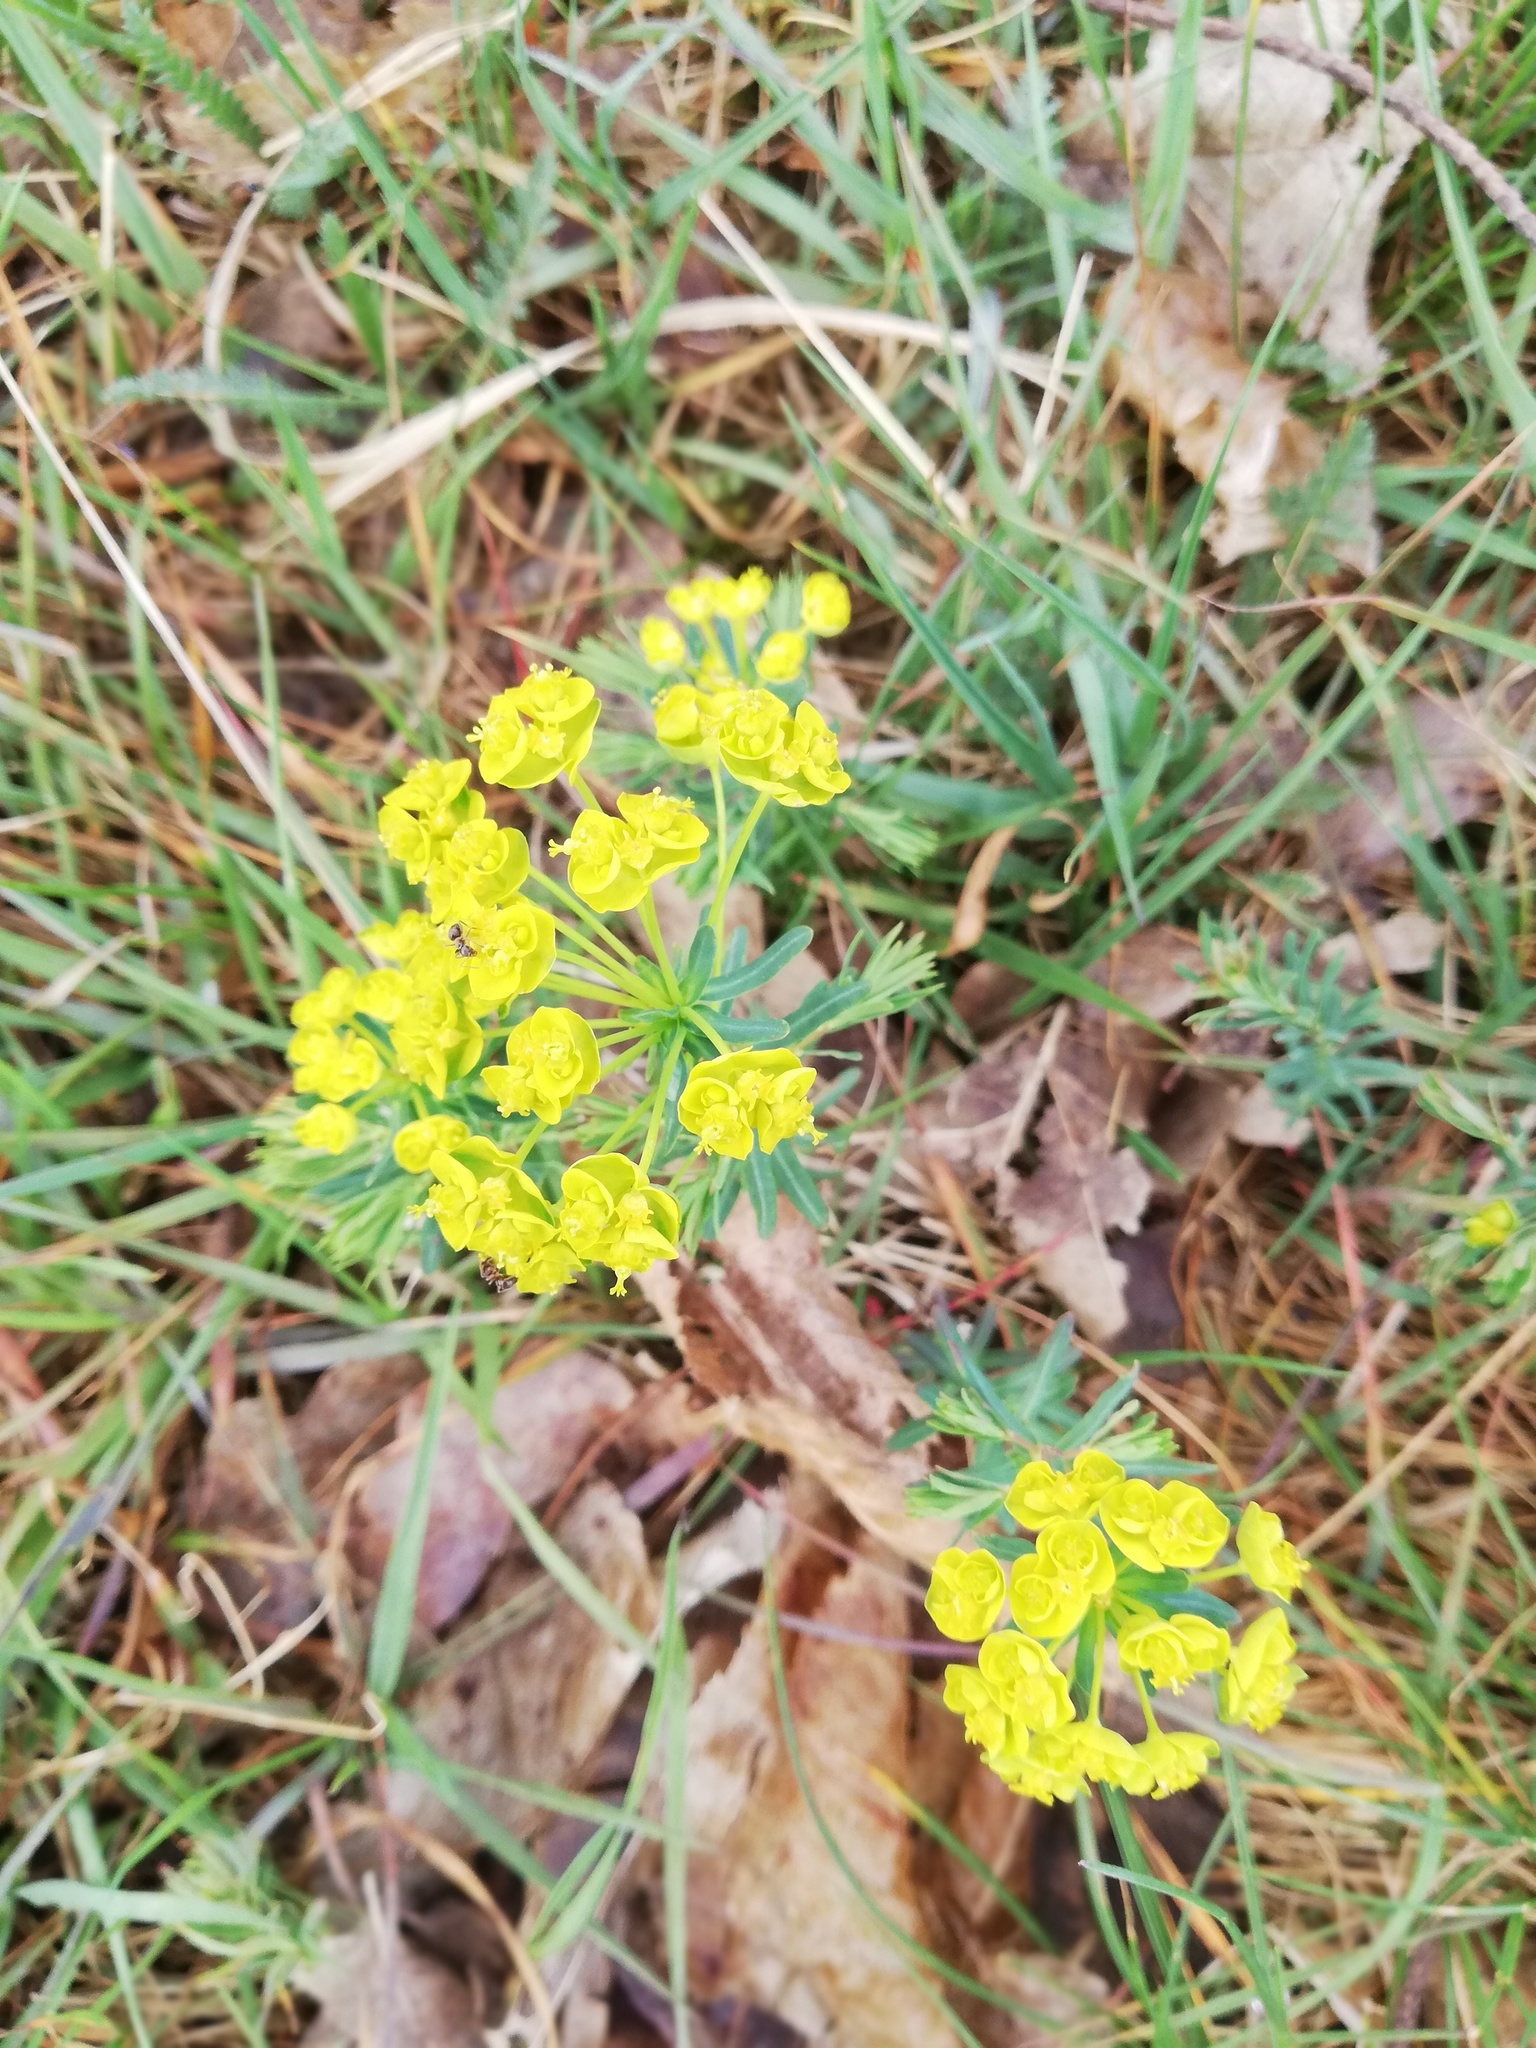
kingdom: Plantae
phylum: Tracheophyta
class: Magnoliopsida
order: Malpighiales
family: Euphorbiaceae
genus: Euphorbia
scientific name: Euphorbia cyparissias
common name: Cypress spurge
